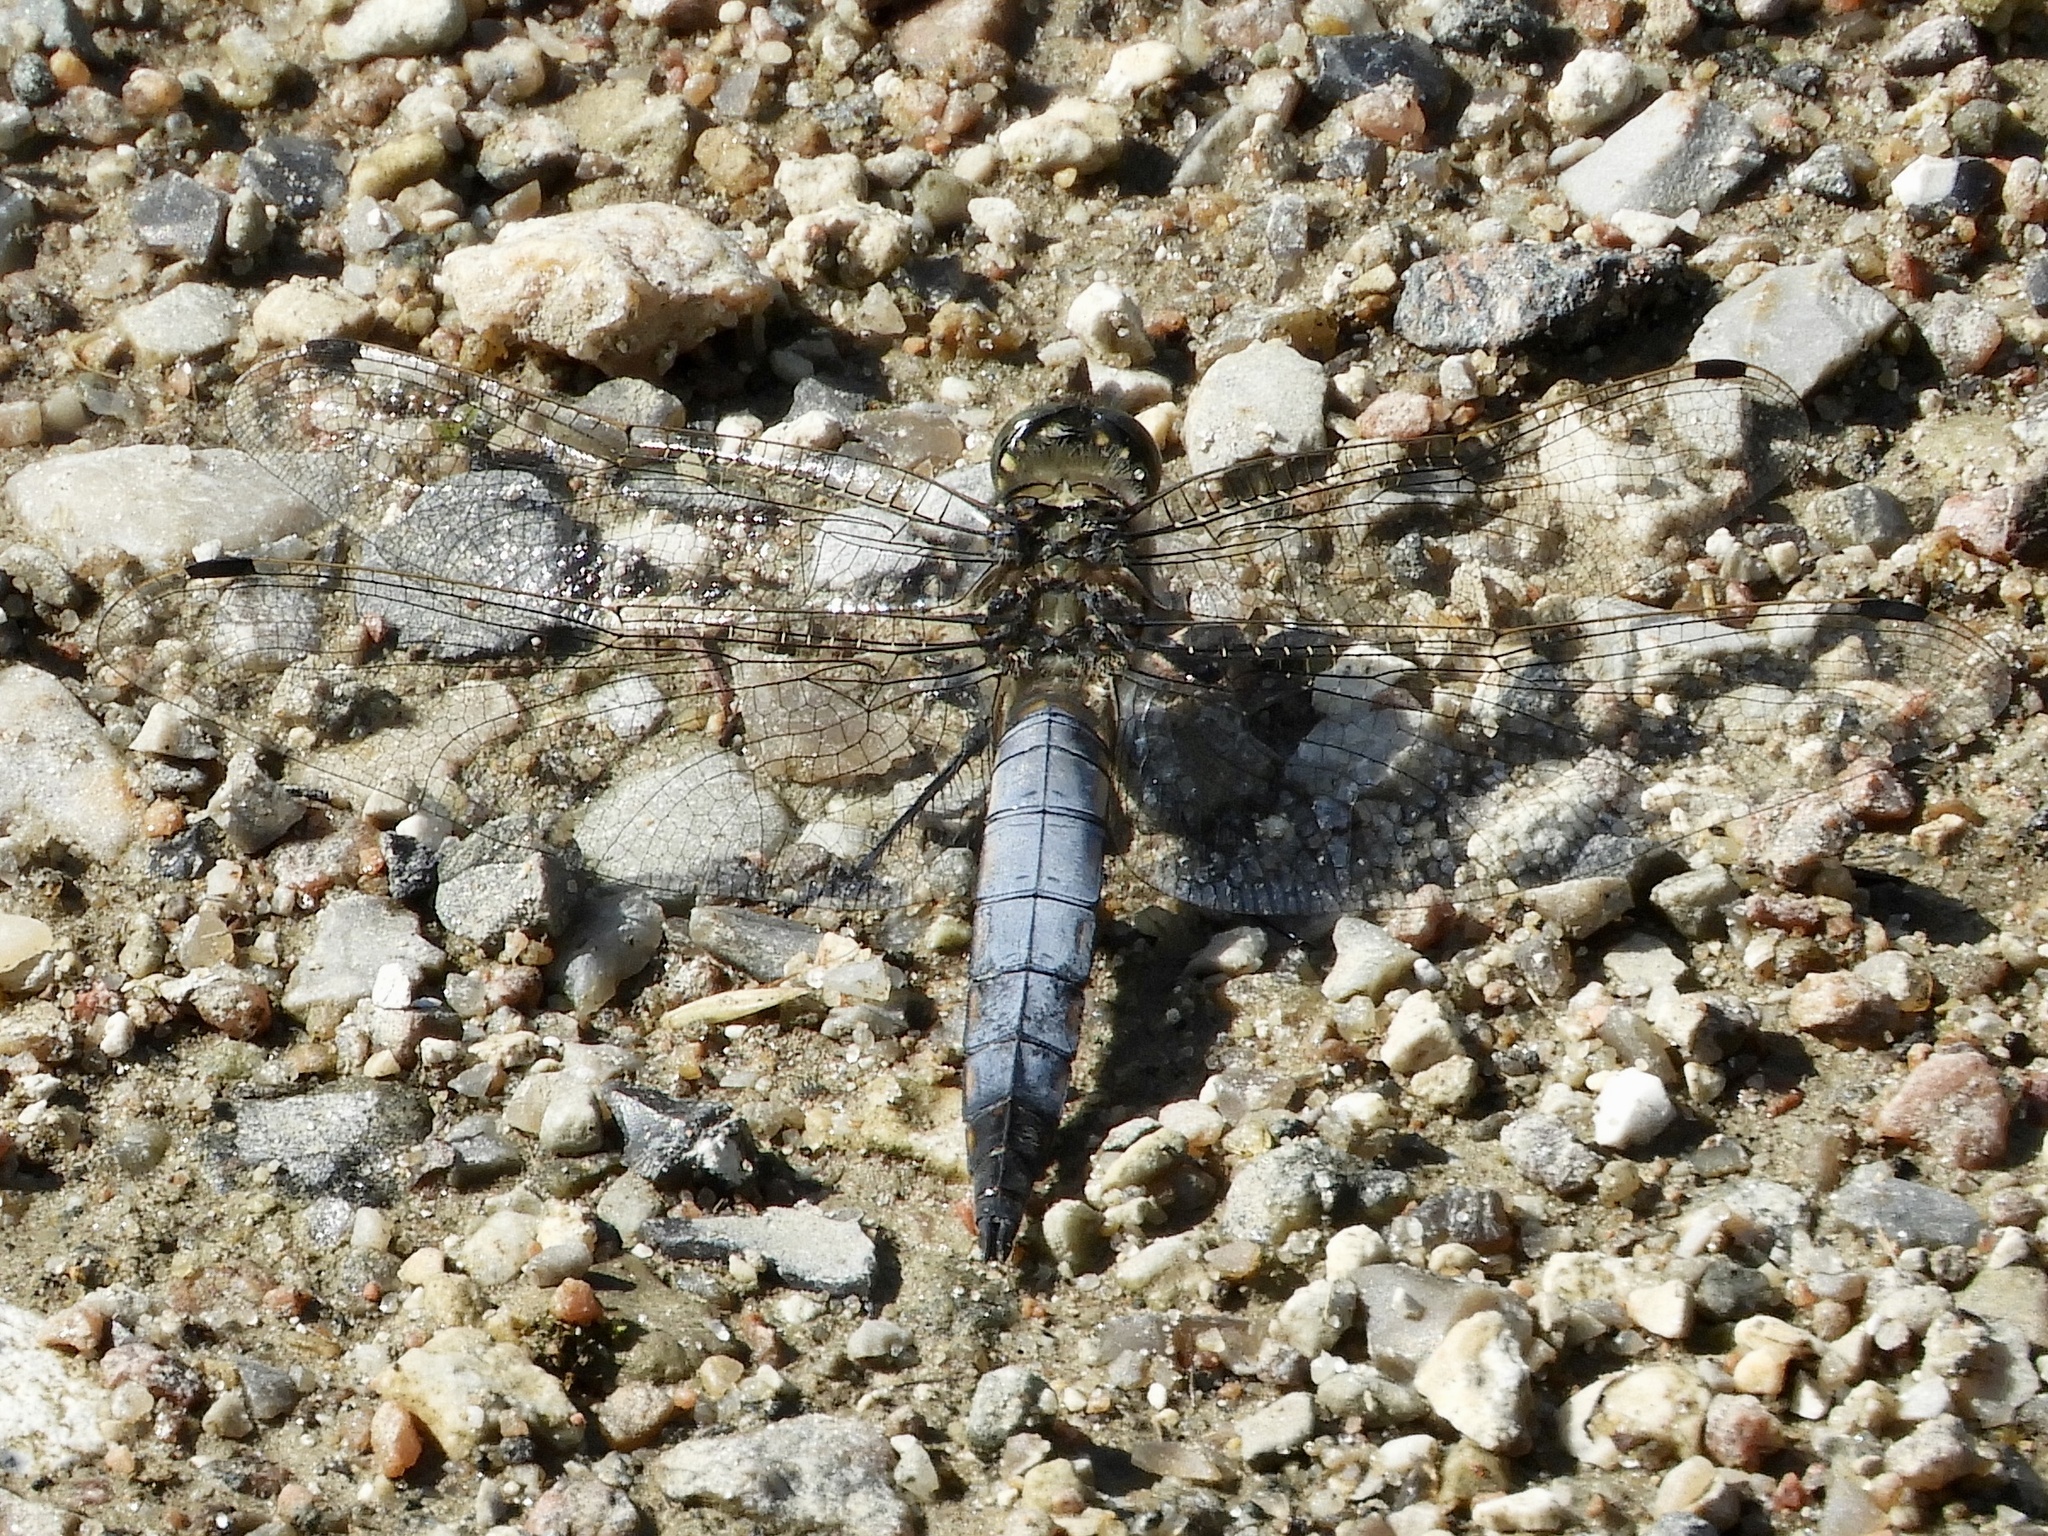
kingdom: Animalia
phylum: Arthropoda
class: Insecta
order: Odonata
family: Libellulidae
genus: Orthetrum
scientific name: Orthetrum cancellatum
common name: Black-tailed skimmer
